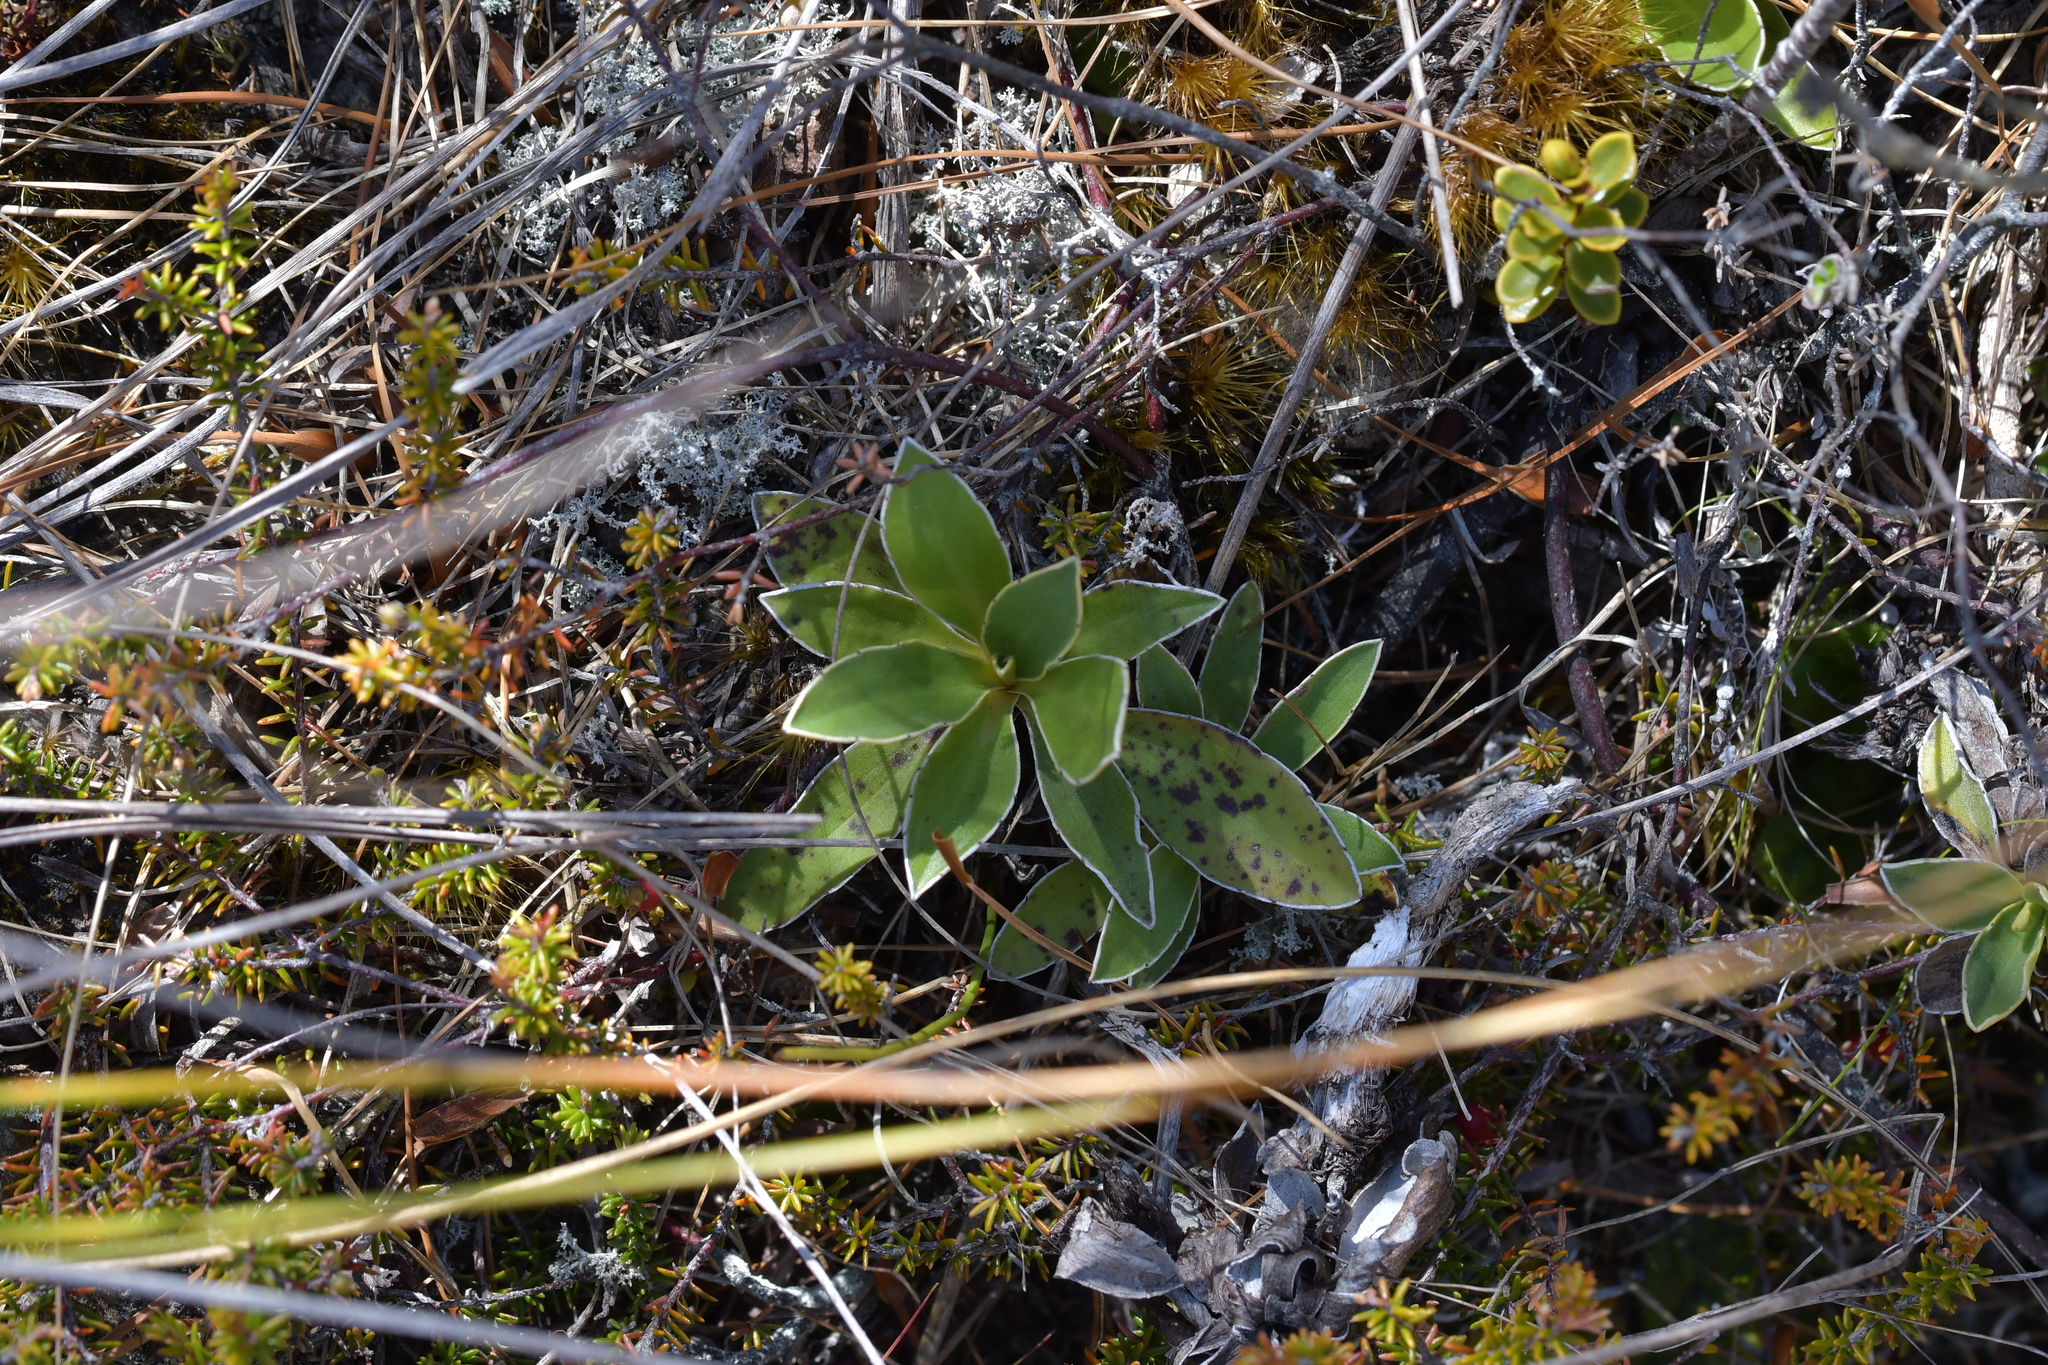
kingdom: Plantae
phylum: Tracheophyta
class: Magnoliopsida
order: Asterales
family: Asteraceae
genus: Celmisia
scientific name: Celmisia hieraciifolia
